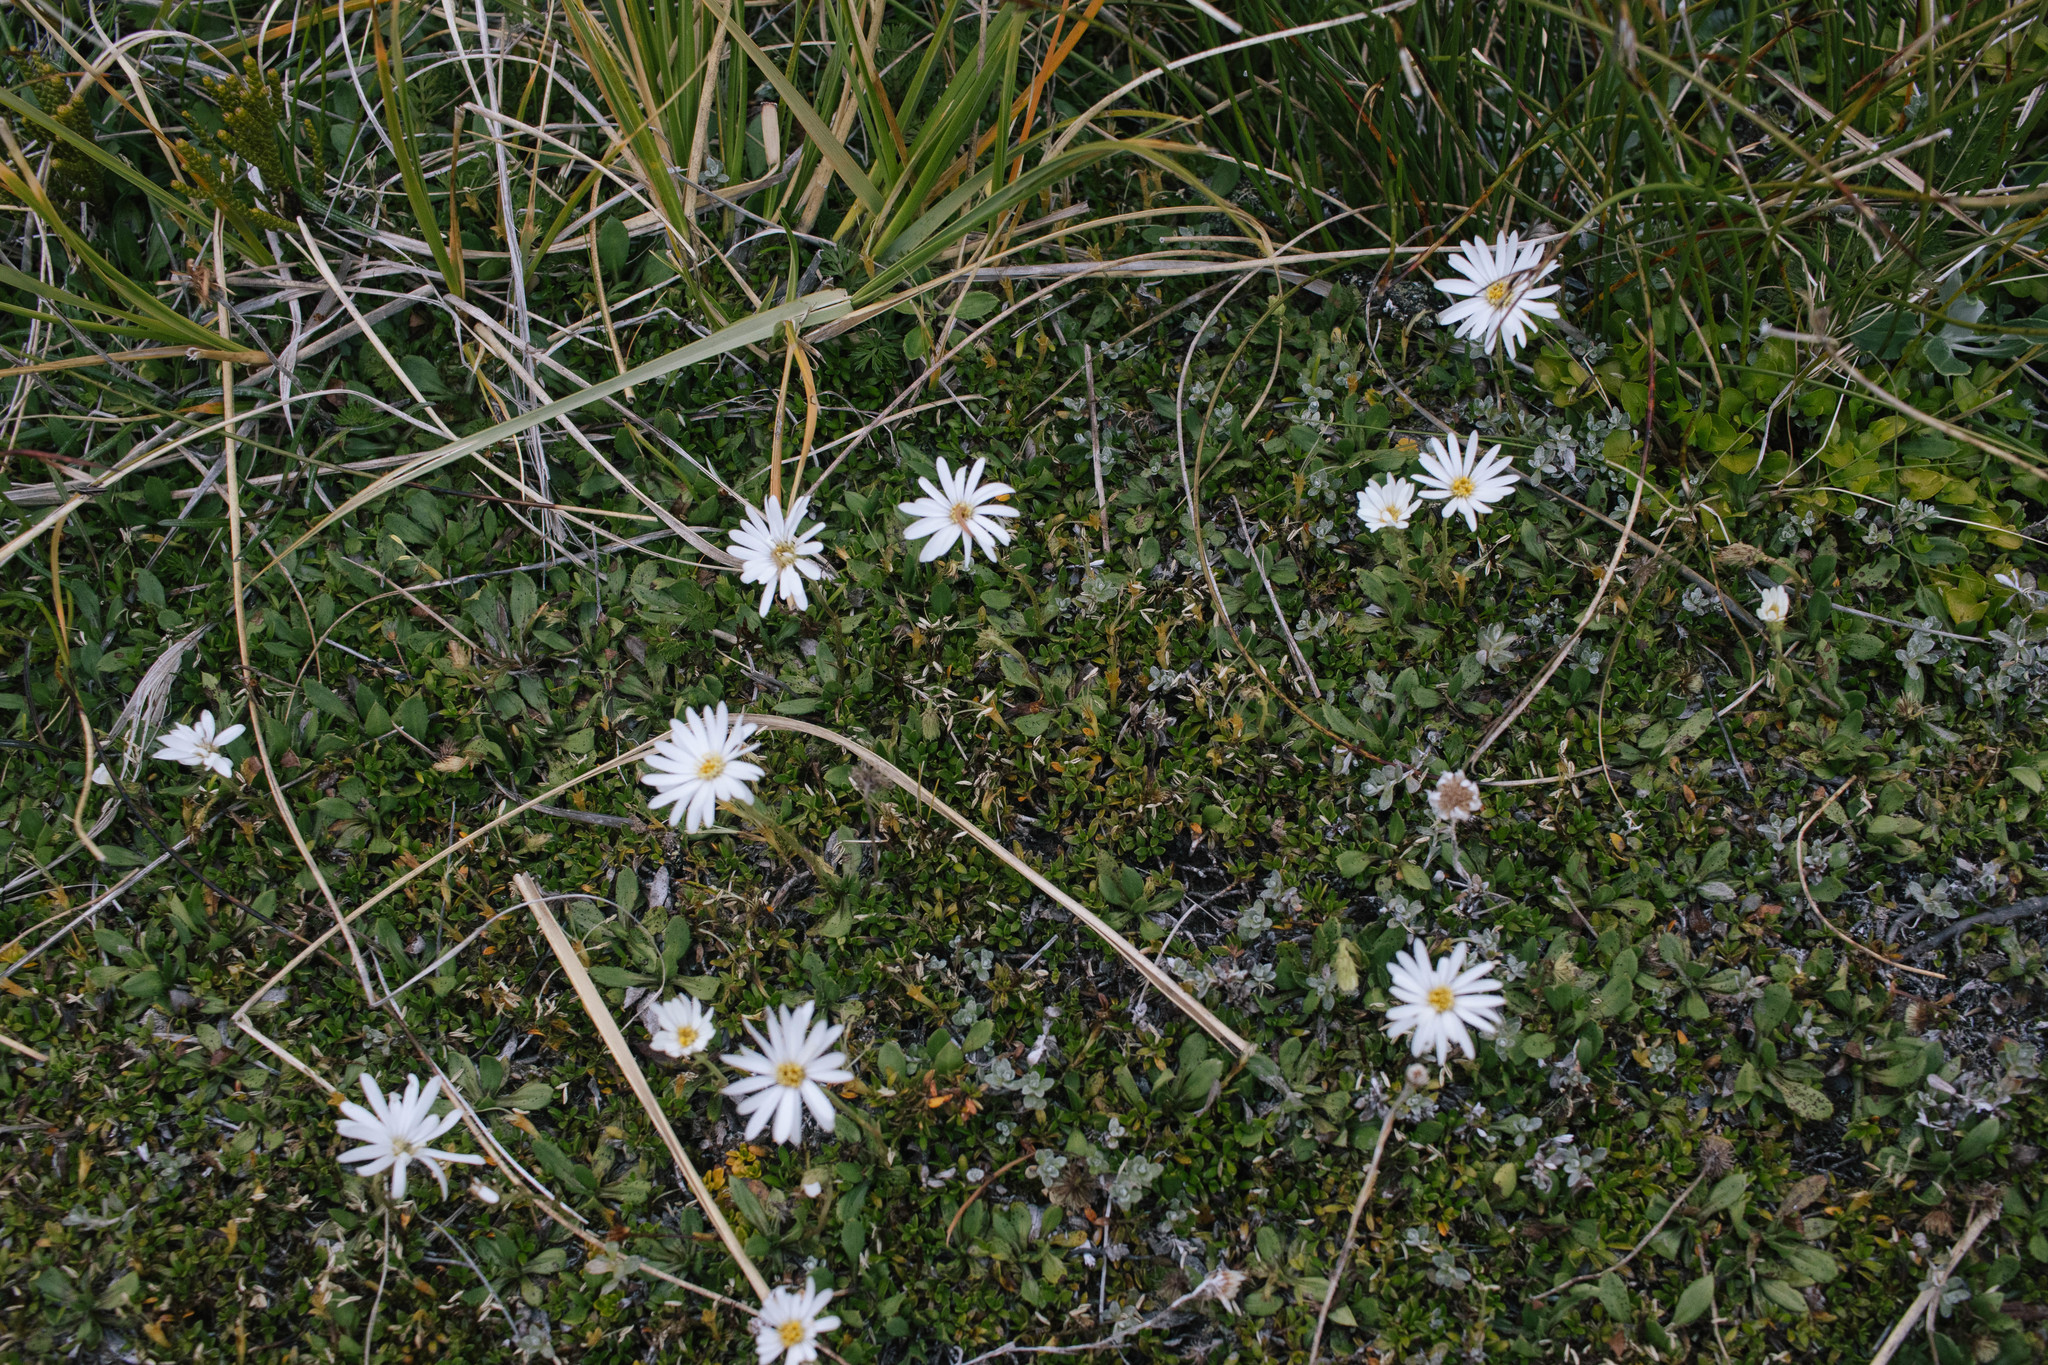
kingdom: Plantae
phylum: Tracheophyta
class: Magnoliopsida
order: Asterales
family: Asteraceae
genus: Celmisia
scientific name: Celmisia glandulosa
